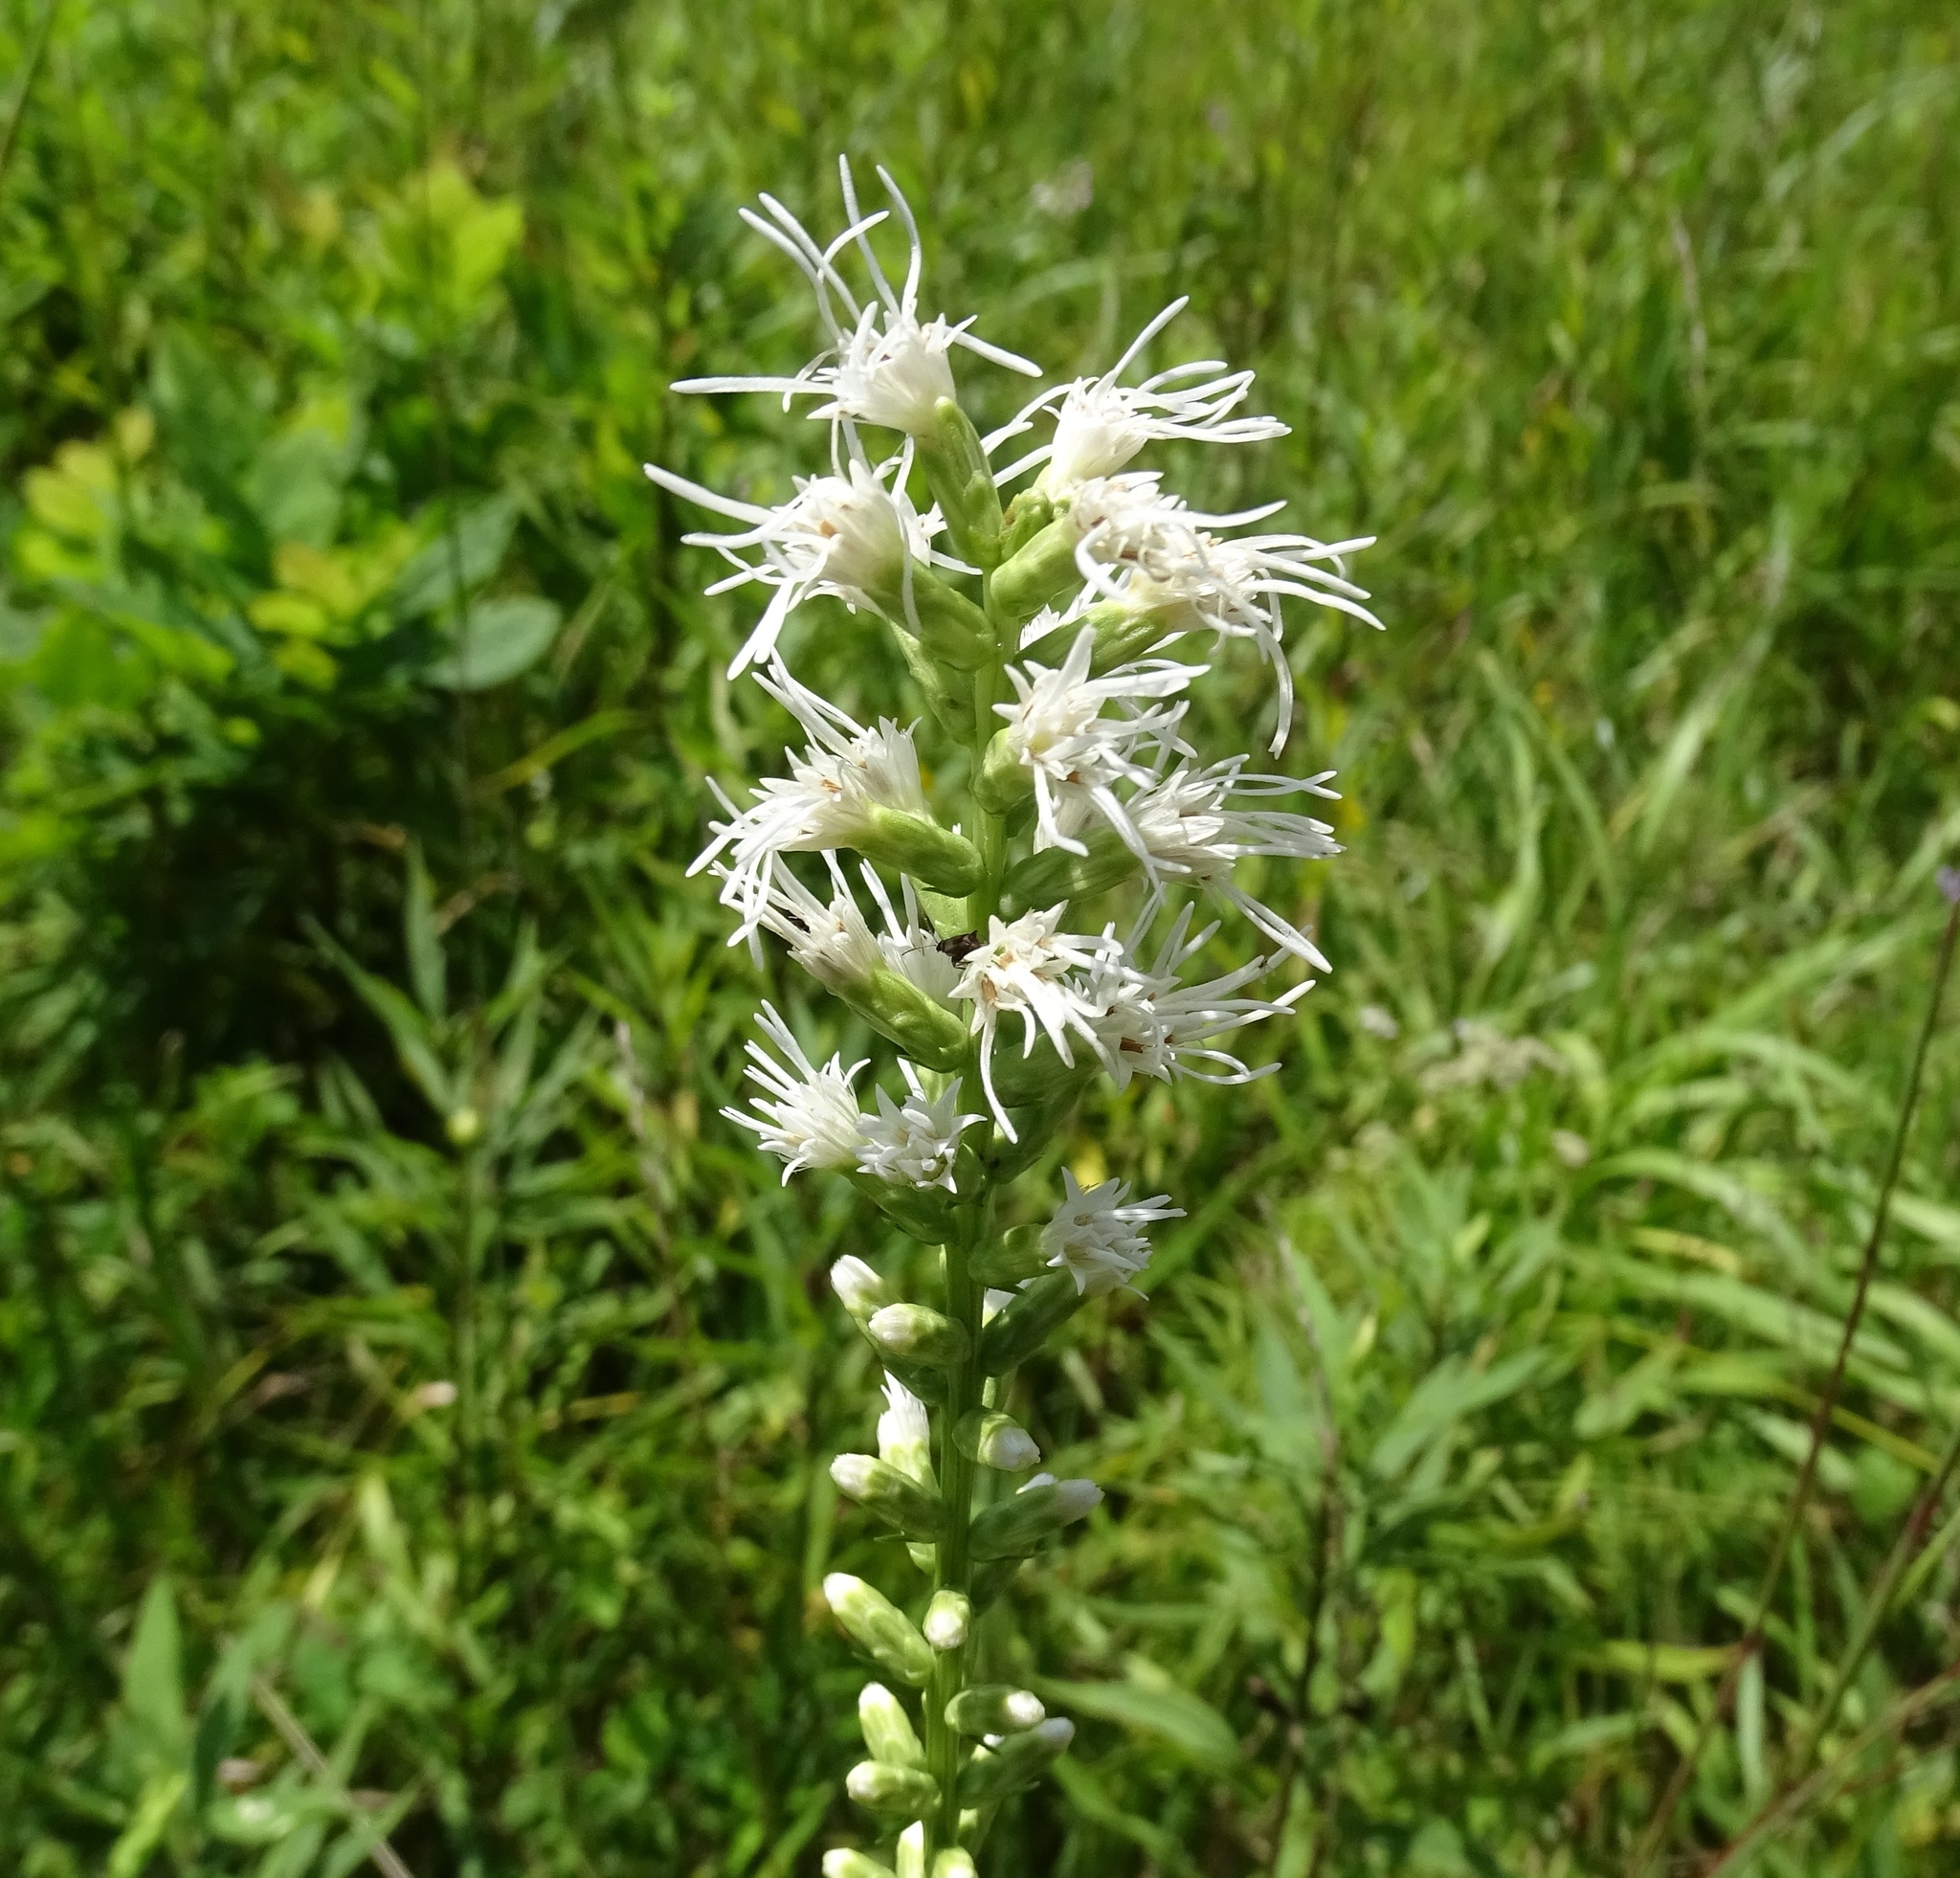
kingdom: Plantae
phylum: Tracheophyta
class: Magnoliopsida
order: Asterales
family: Asteraceae
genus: Liatris
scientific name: Liatris spicata
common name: Florist gayfeather
